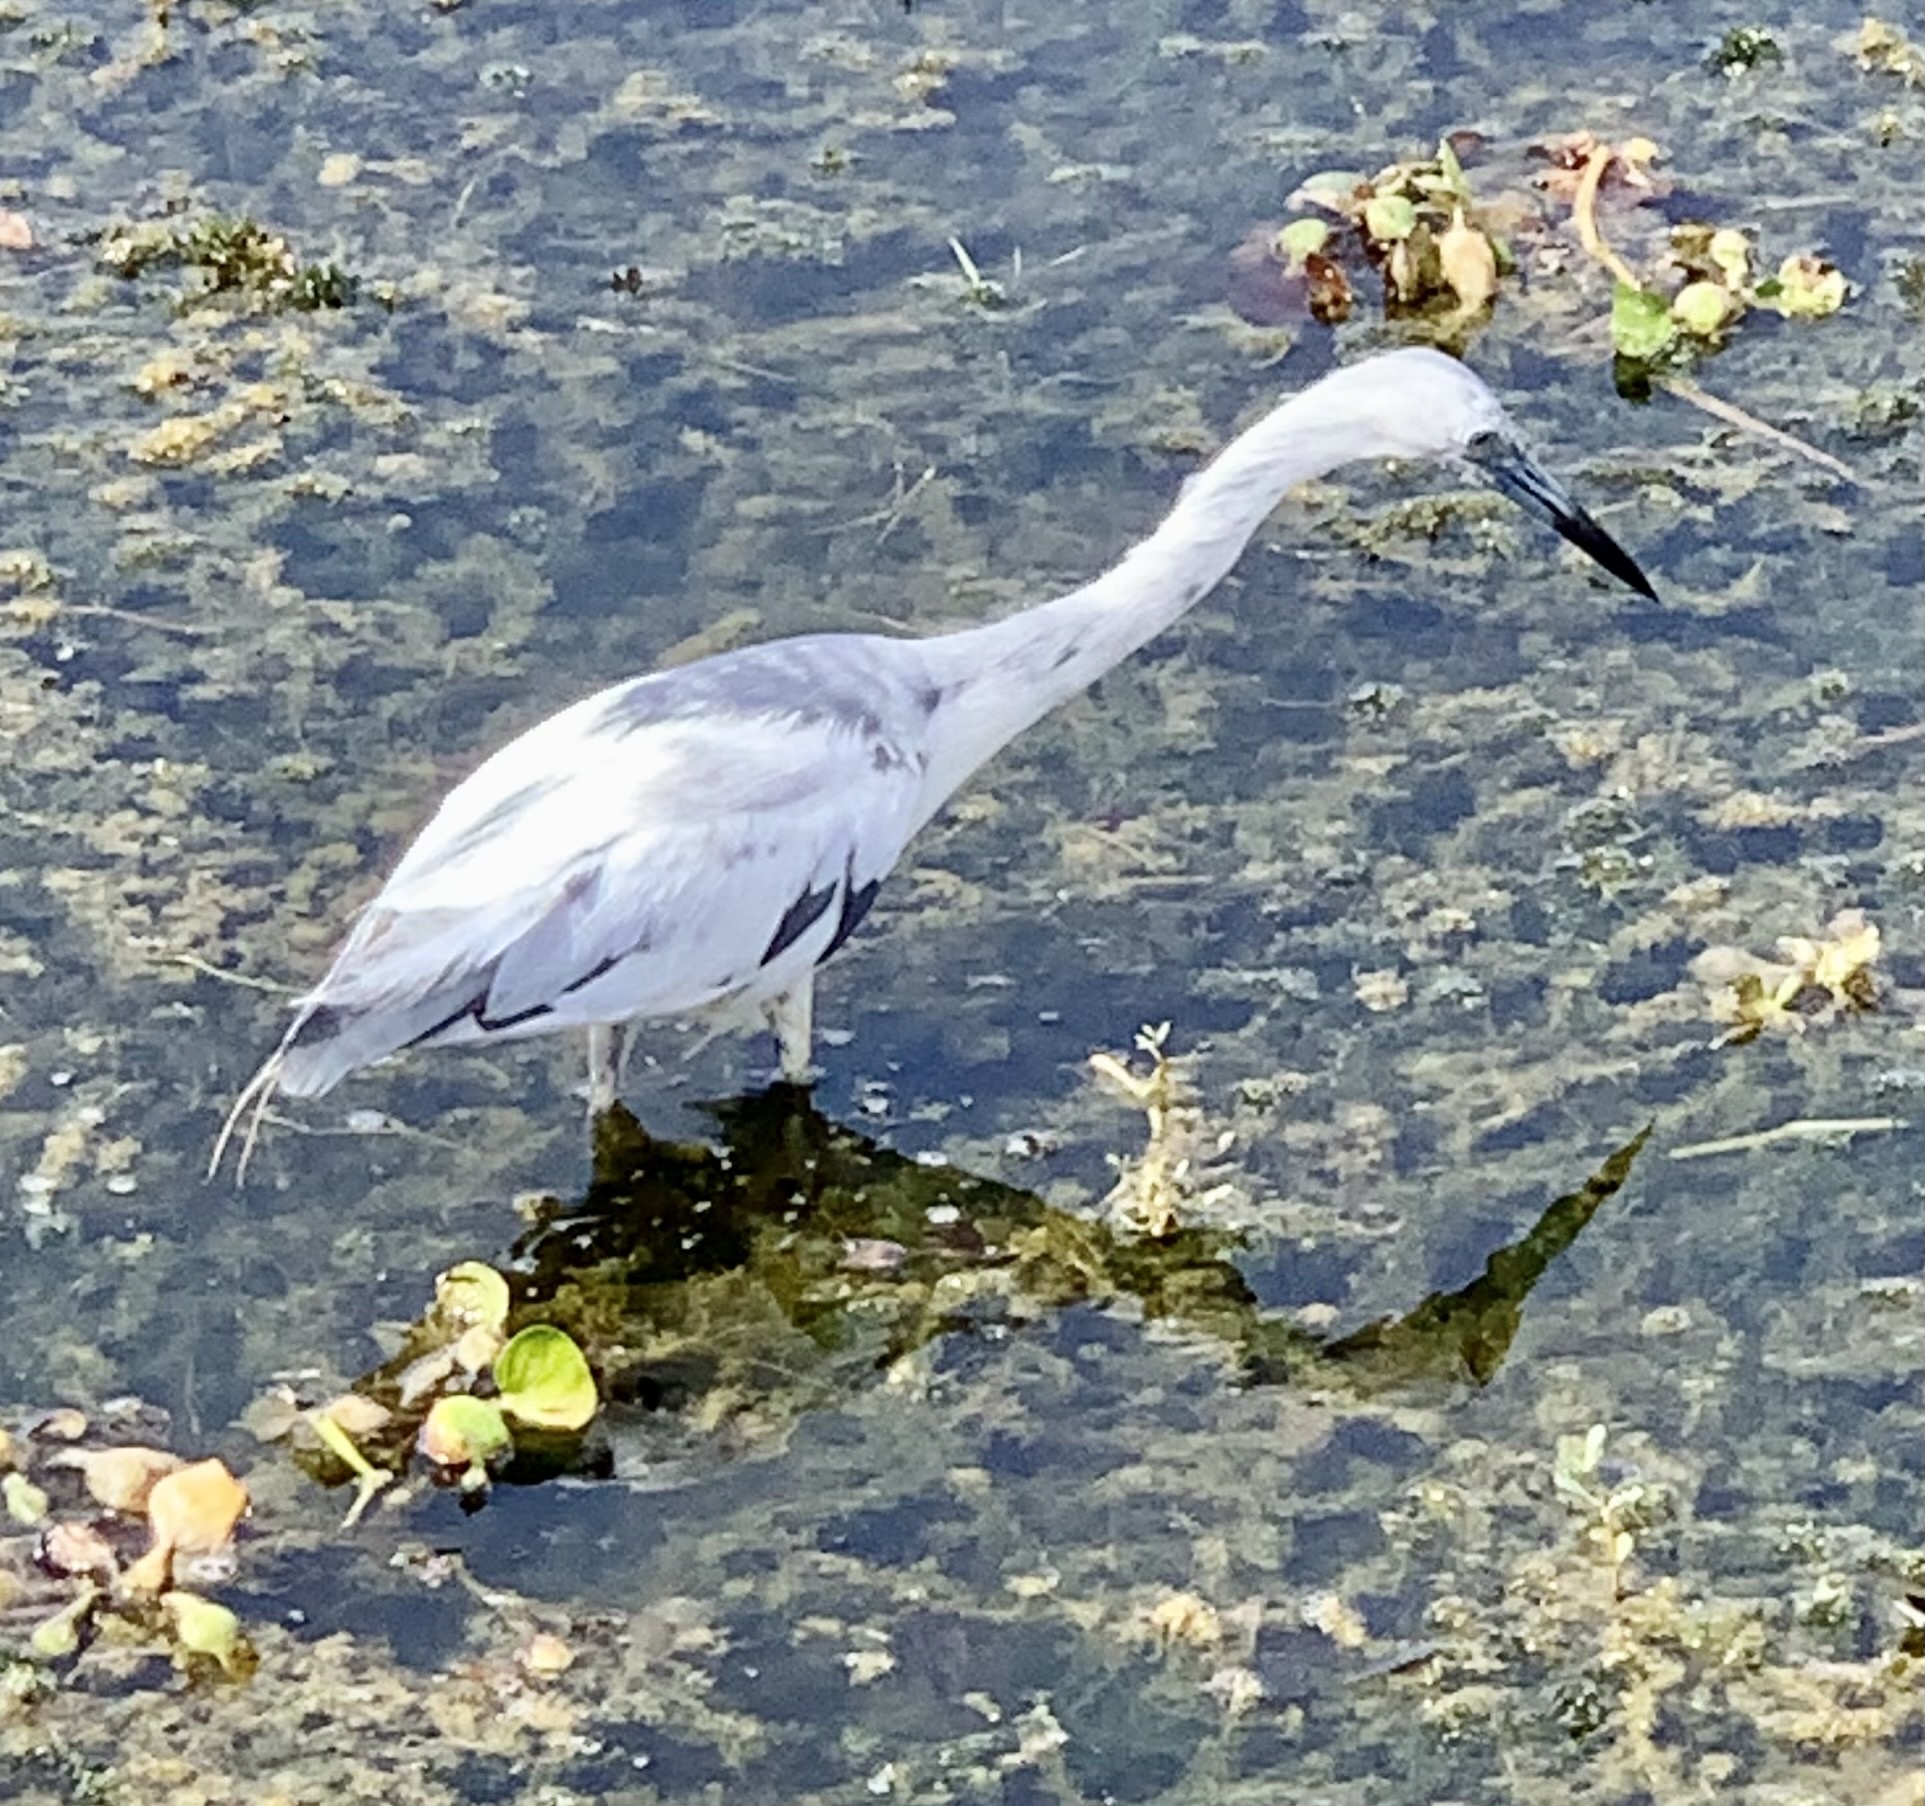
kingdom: Animalia
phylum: Chordata
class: Aves
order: Pelecaniformes
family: Ardeidae
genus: Egretta
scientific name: Egretta caerulea
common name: Little blue heron
